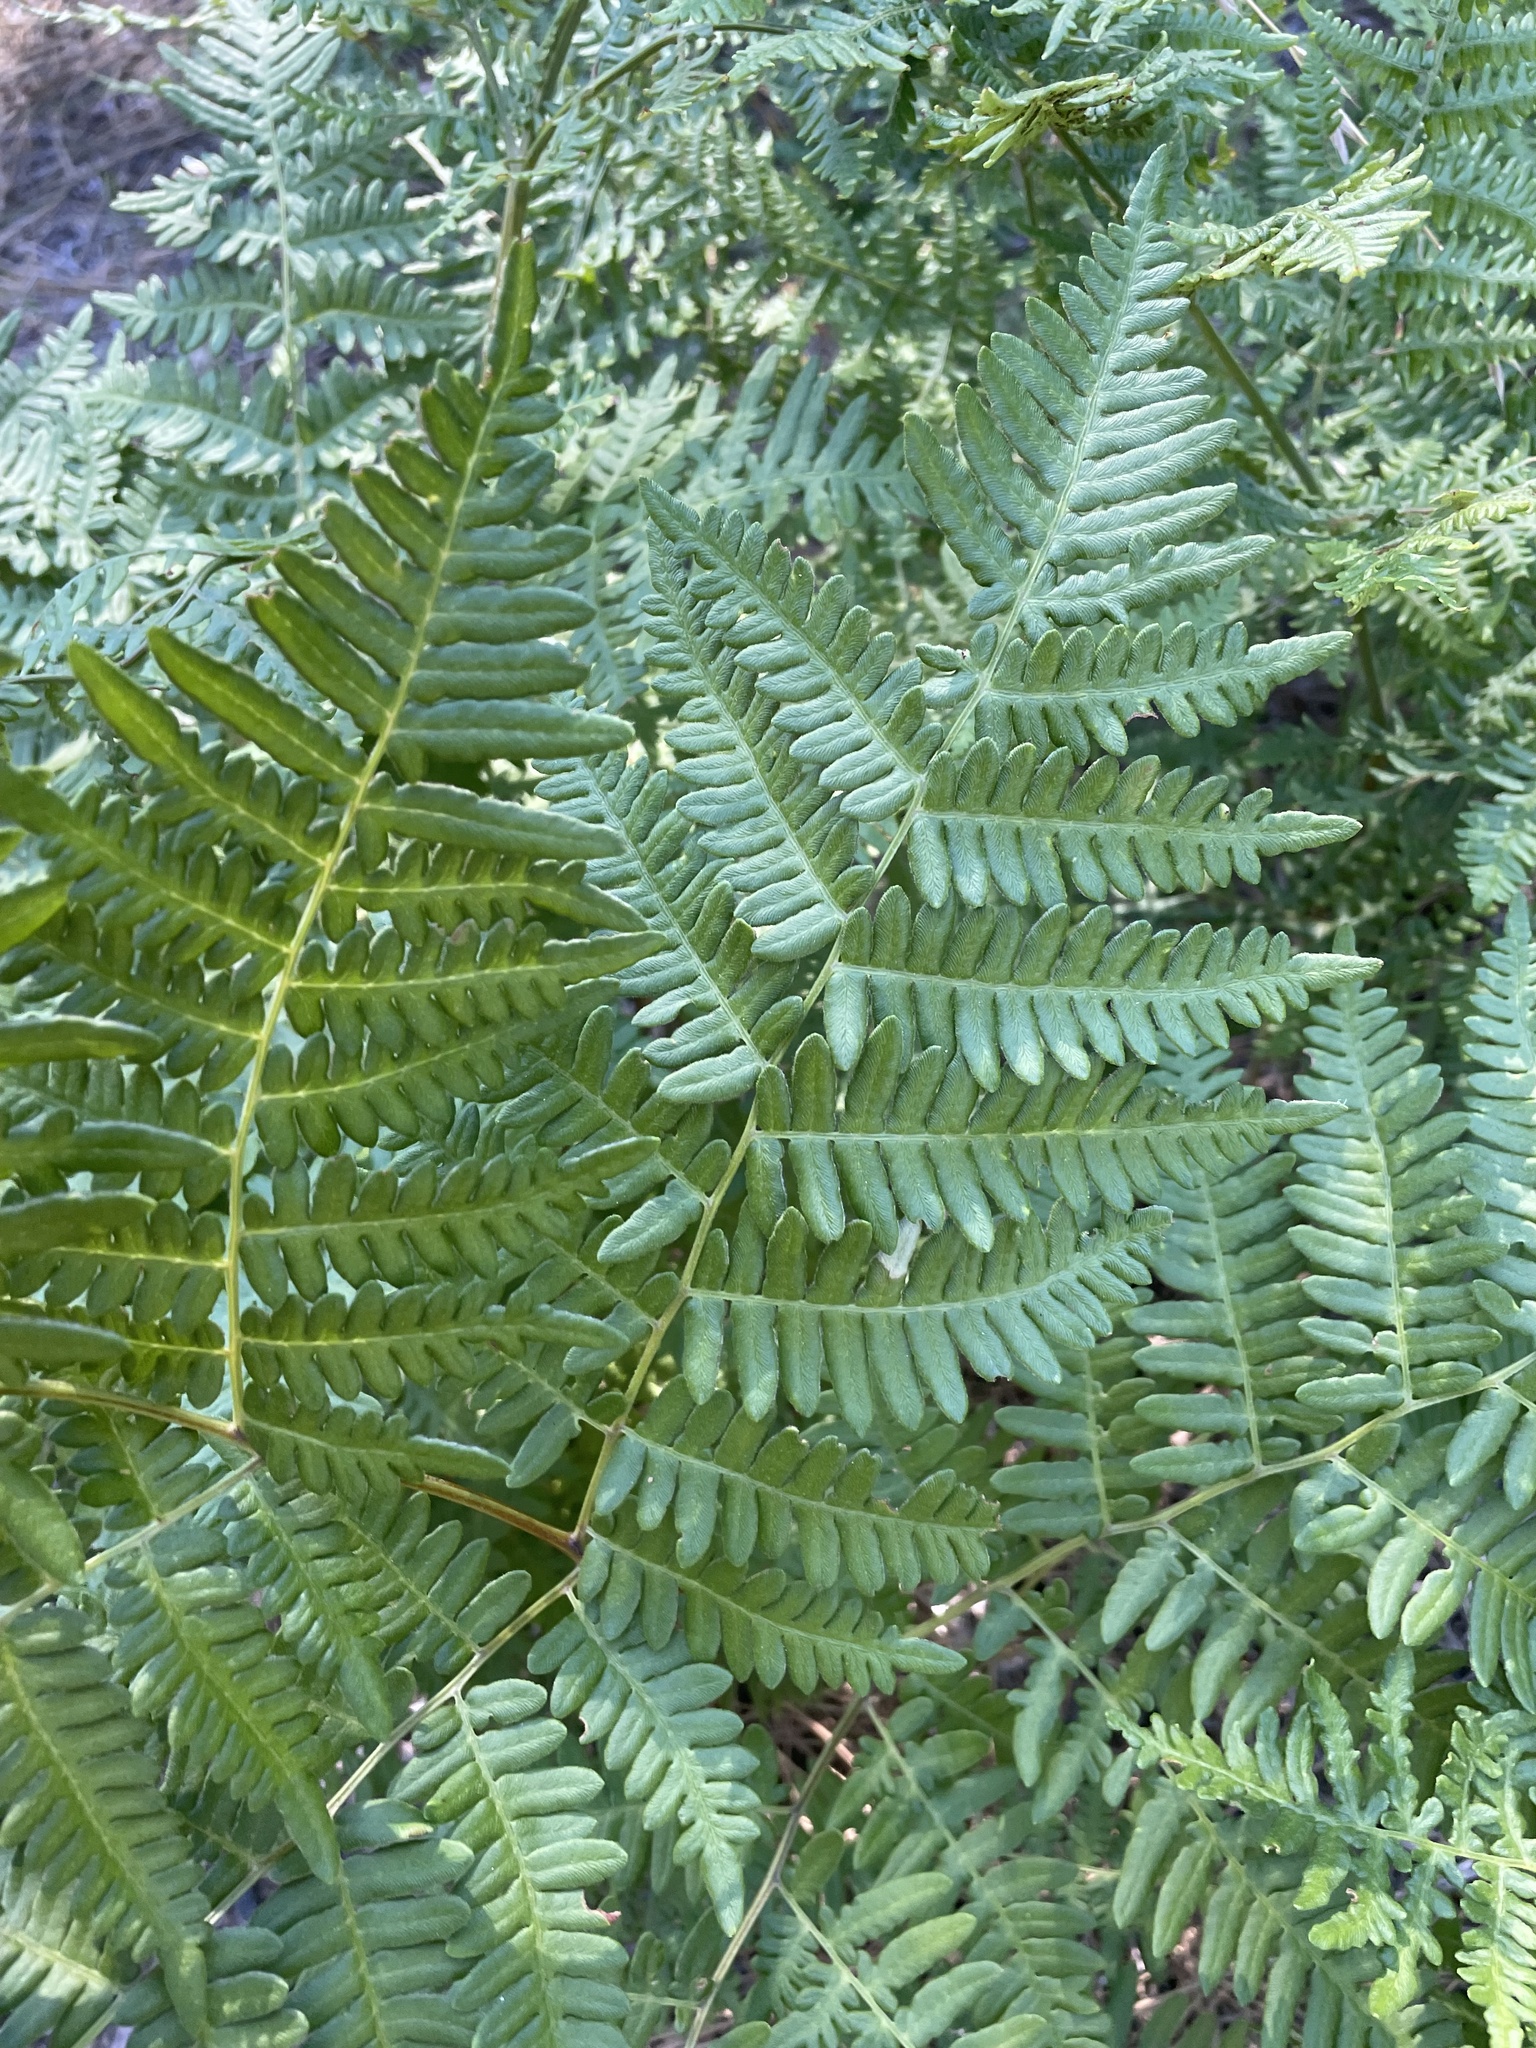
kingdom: Plantae
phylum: Tracheophyta
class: Polypodiopsida
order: Polypodiales
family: Dennstaedtiaceae
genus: Pteridium
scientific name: Pteridium aquilinum
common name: Bracken
